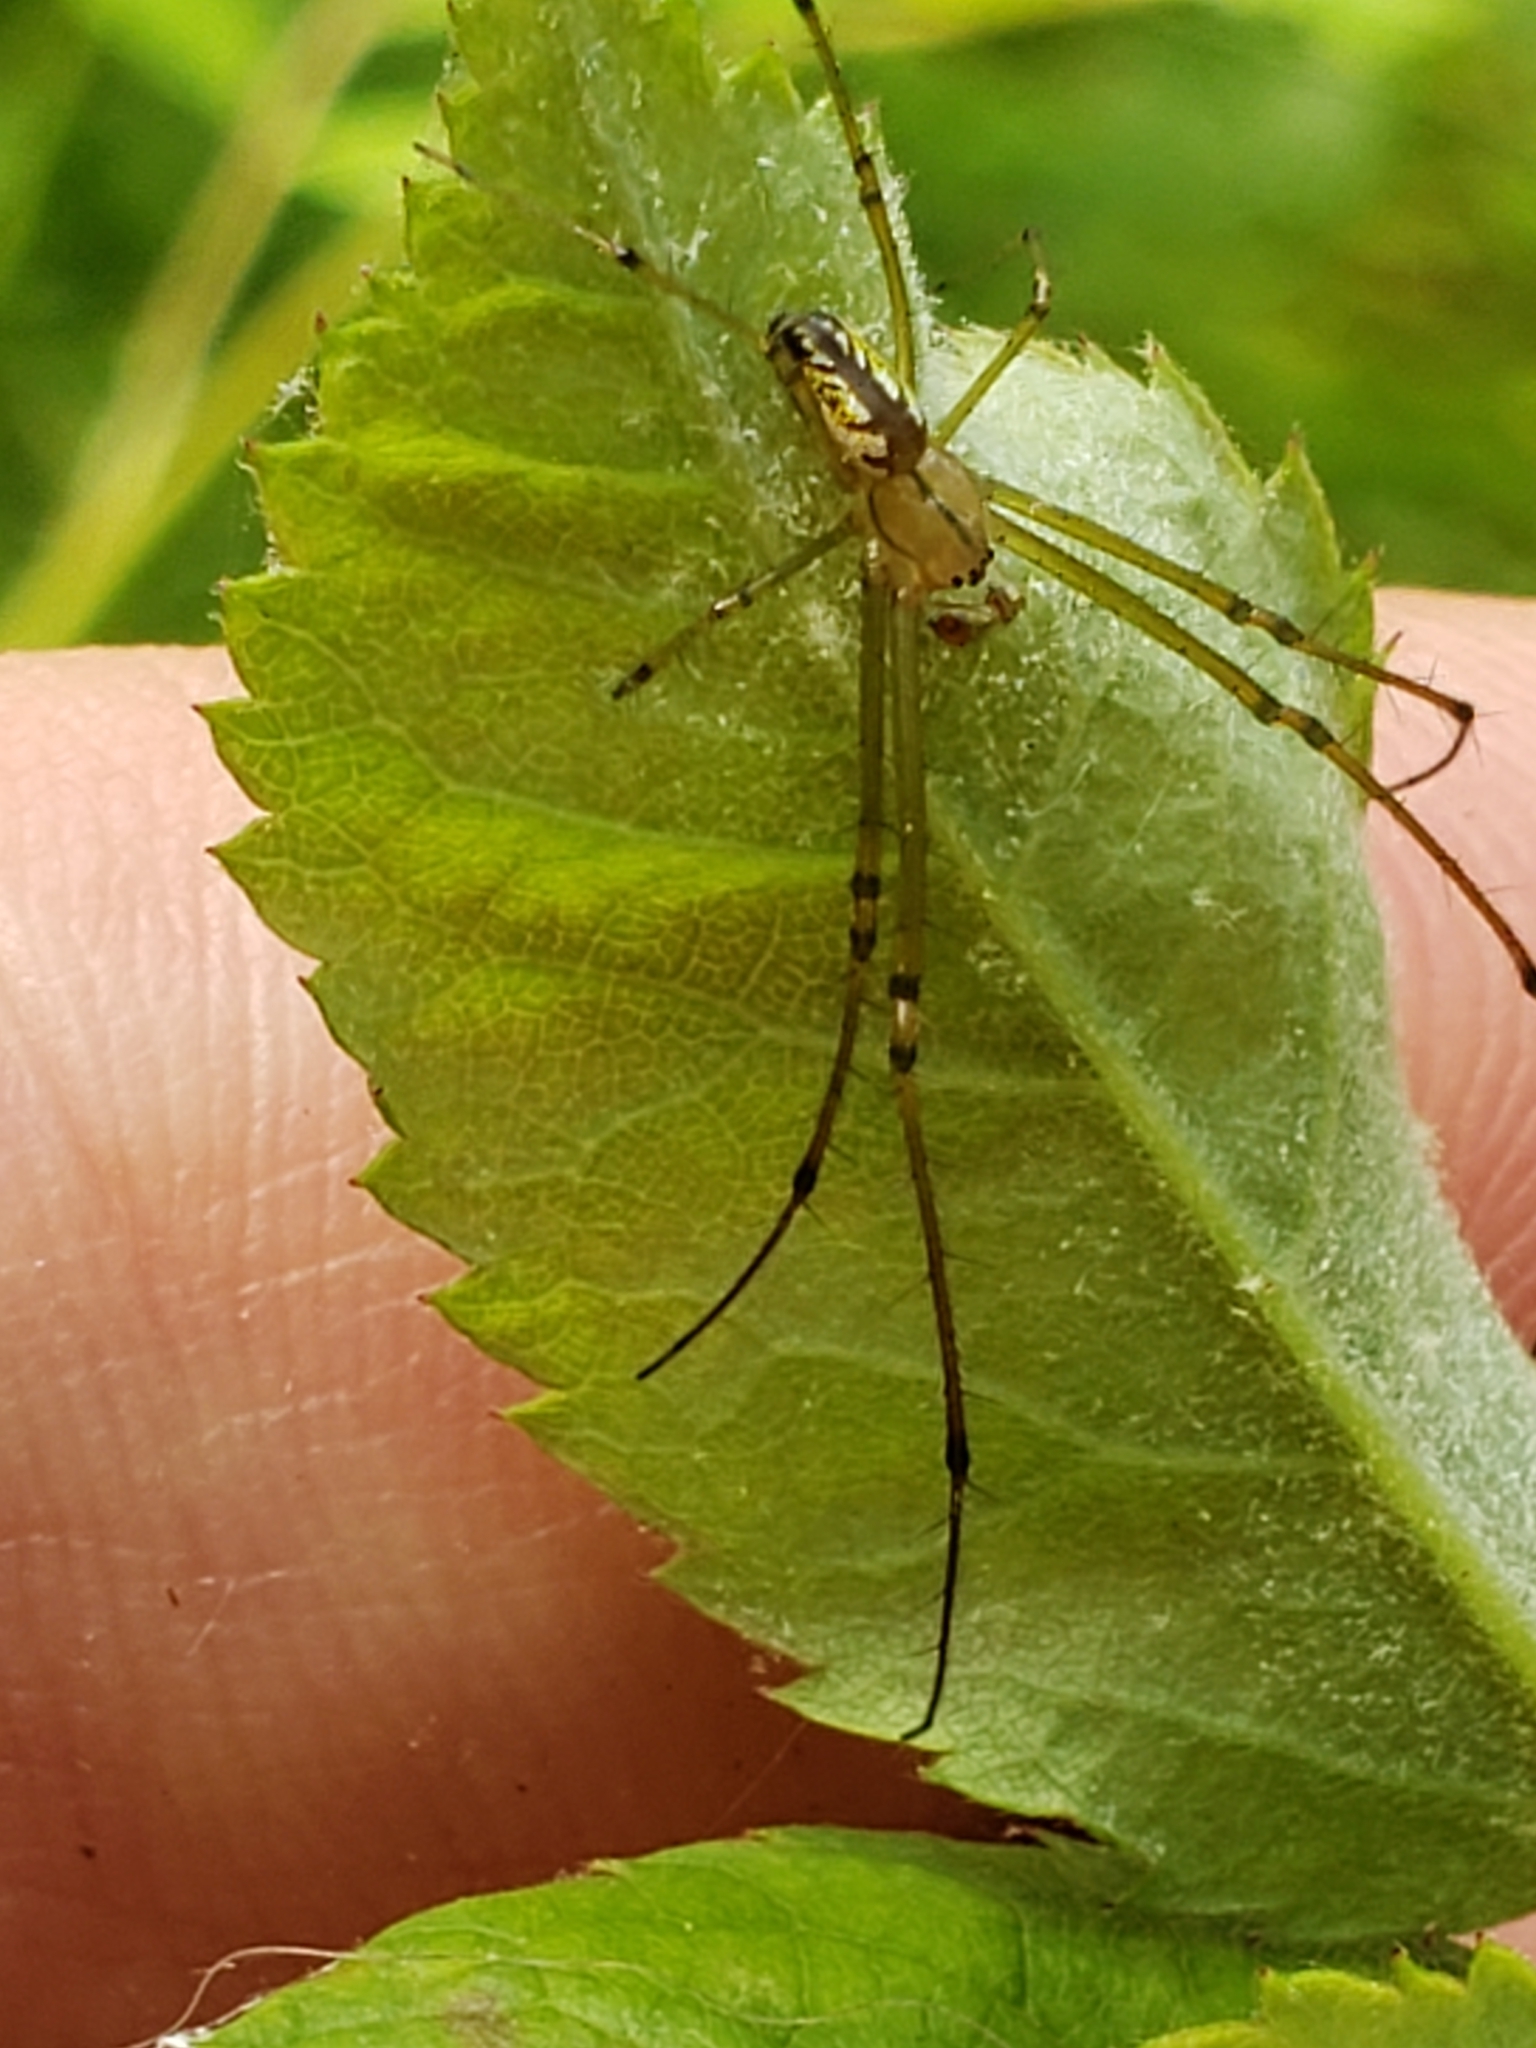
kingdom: Animalia
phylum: Arthropoda
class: Arachnida
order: Araneae
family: Tetragnathidae
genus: Leucauge
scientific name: Leucauge venusta
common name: Longjawed orb weavers
